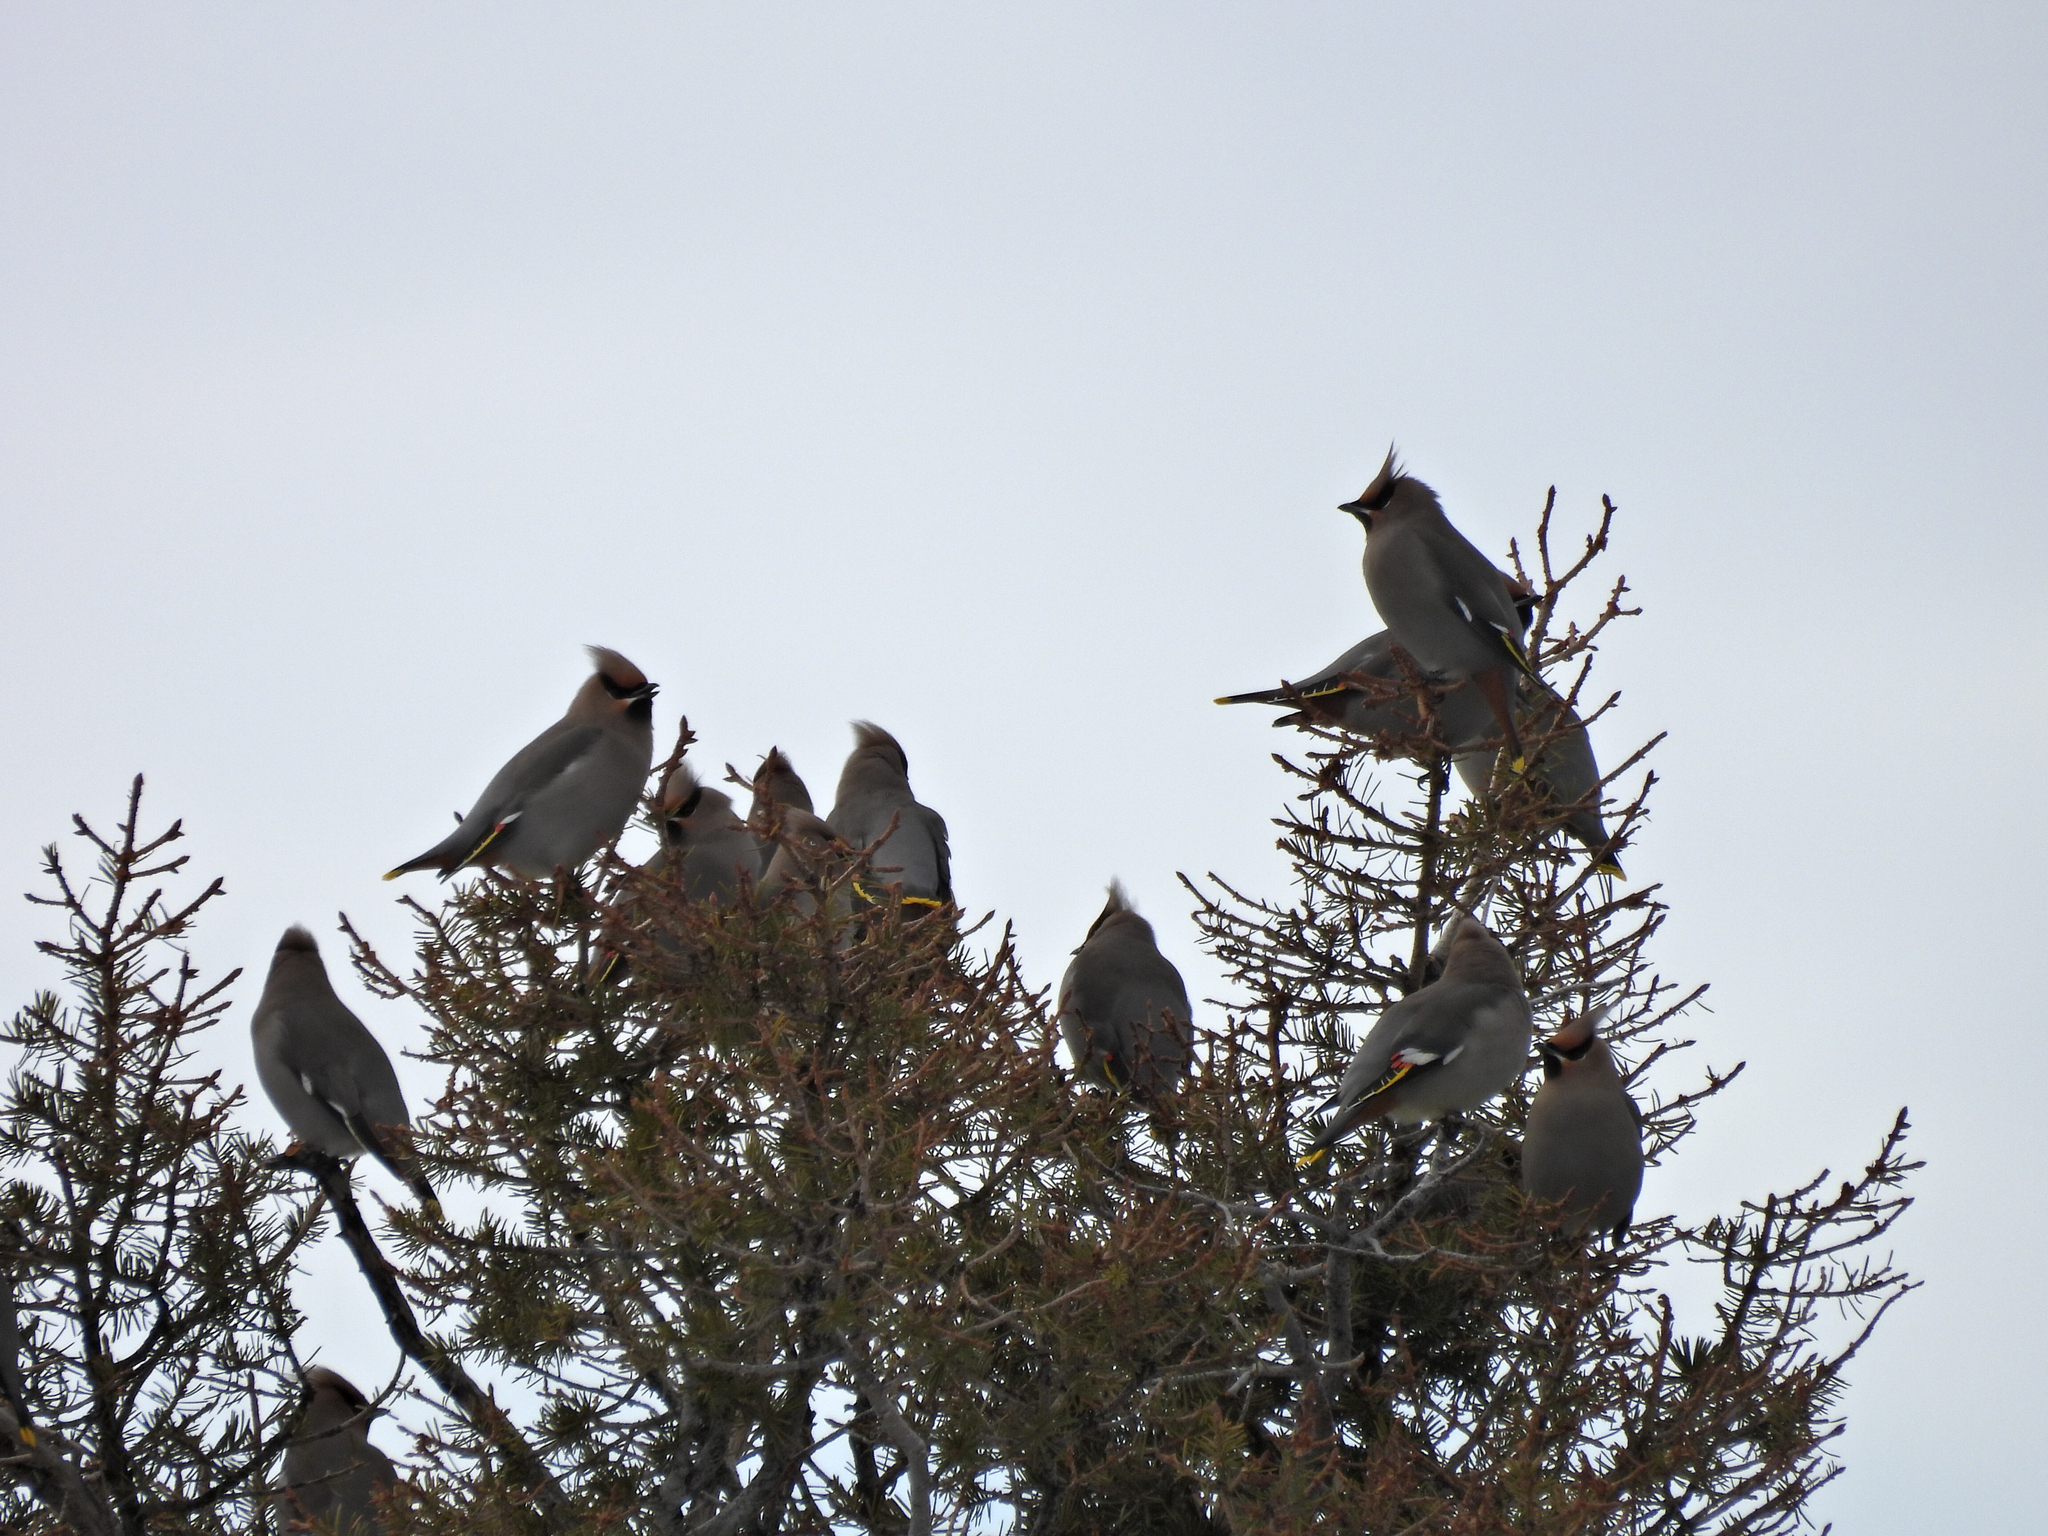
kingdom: Animalia
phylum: Chordata
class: Aves
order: Passeriformes
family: Bombycillidae
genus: Bombycilla
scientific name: Bombycilla garrulus
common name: Bohemian waxwing
